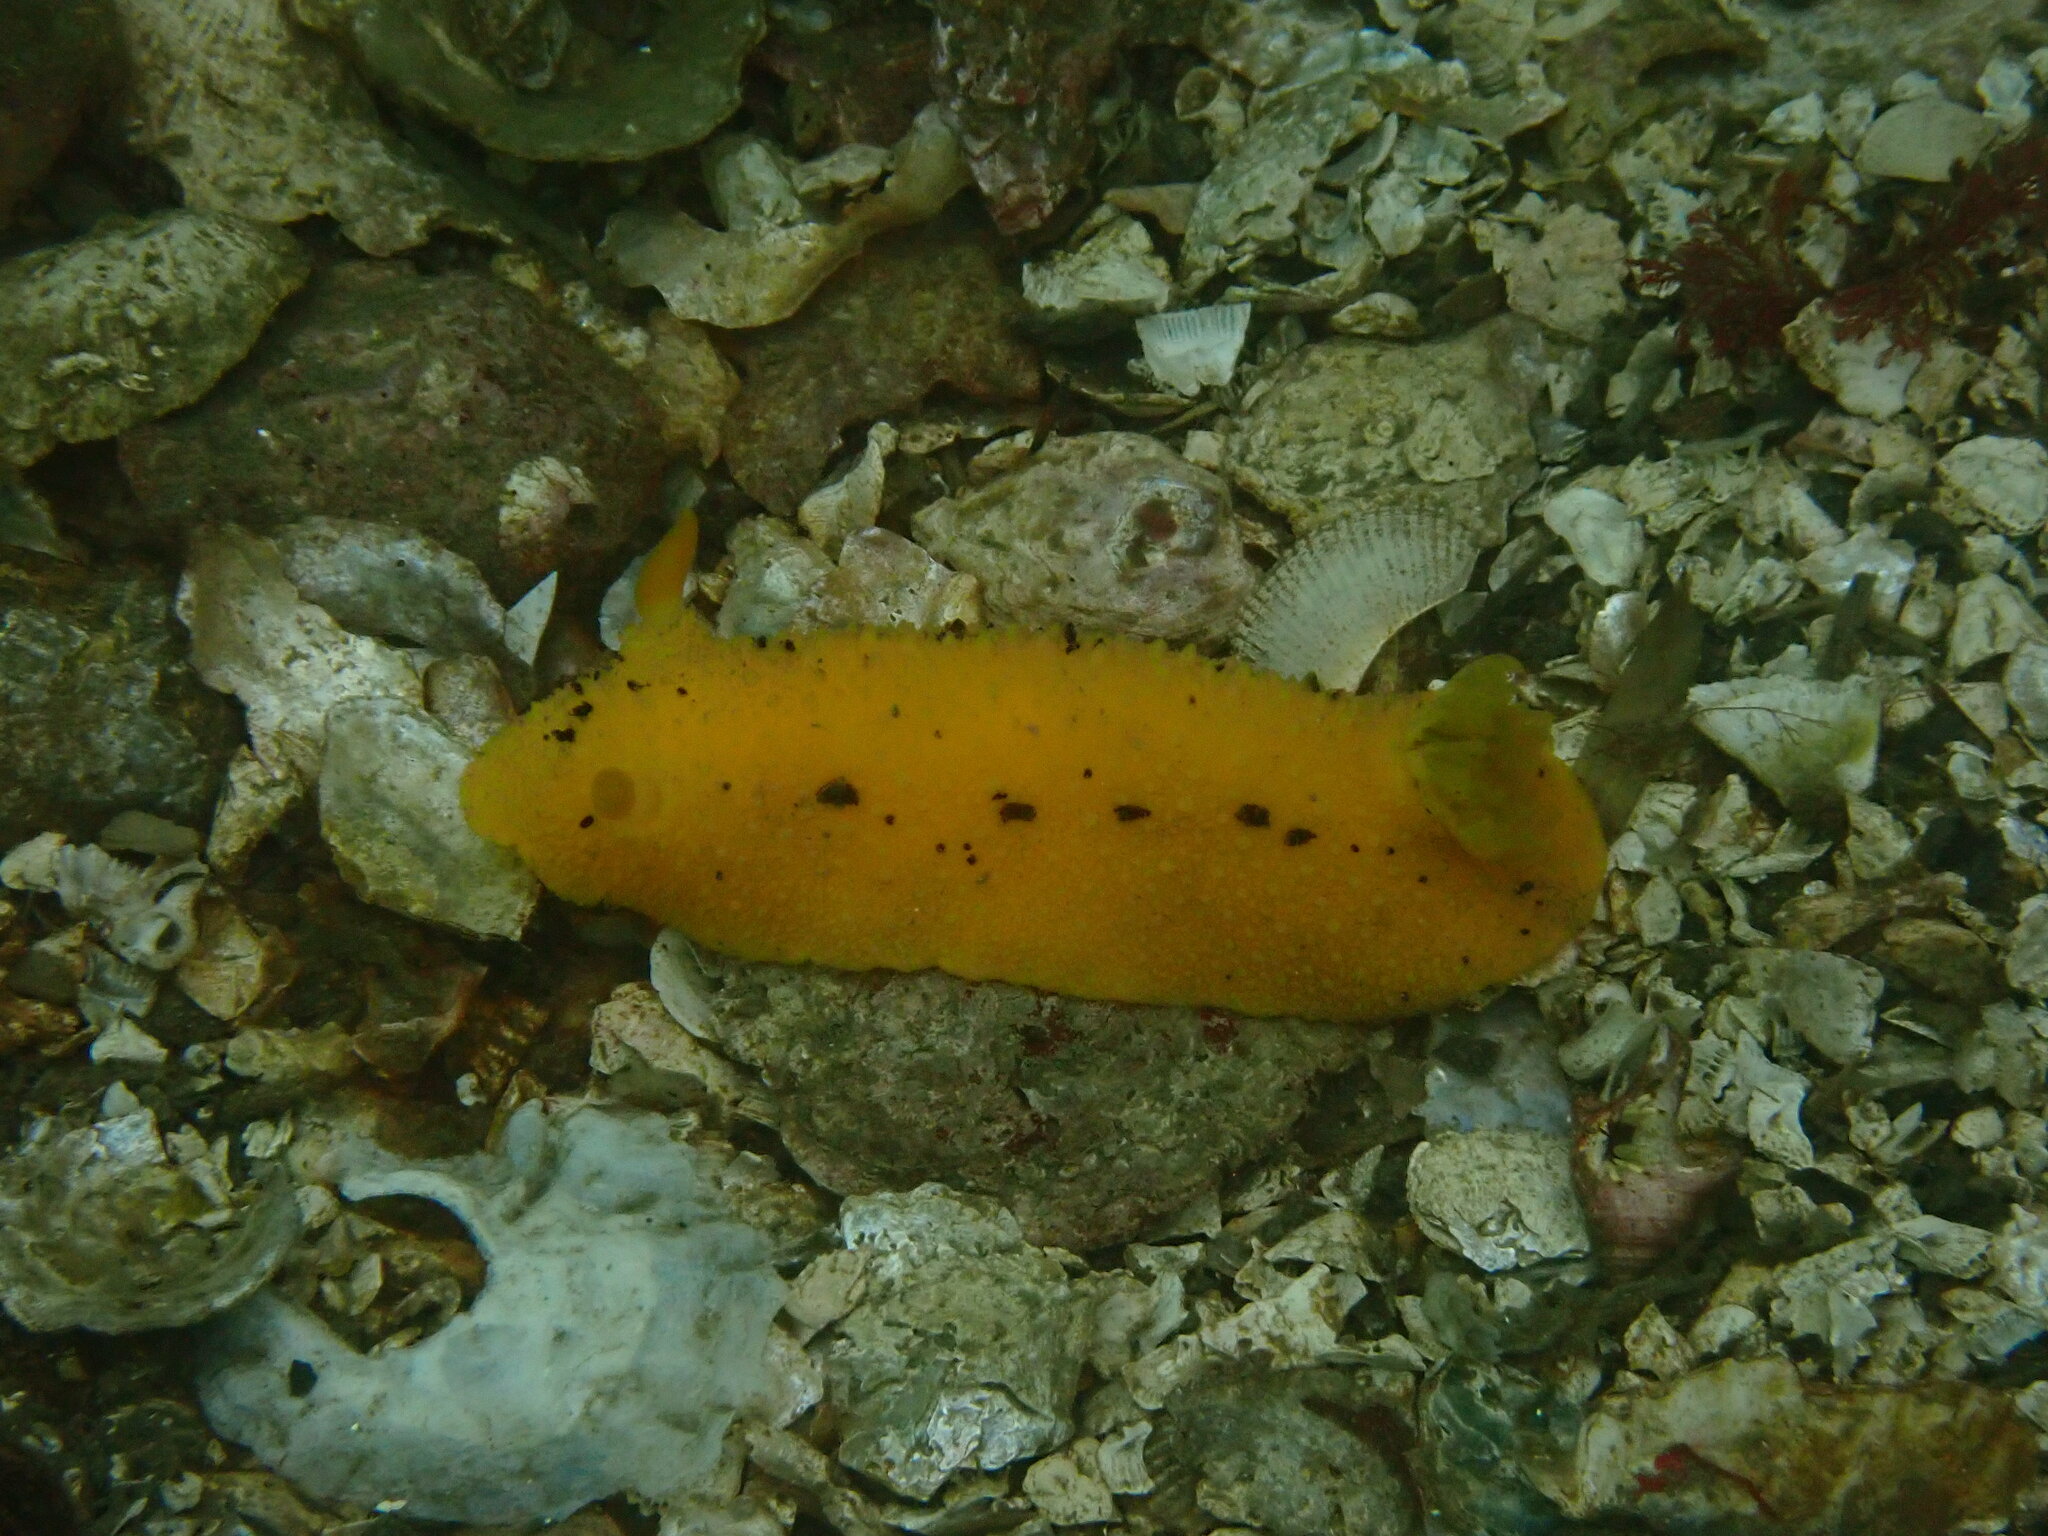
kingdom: Animalia
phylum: Mollusca
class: Gastropoda
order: Nudibranchia
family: Dorididae
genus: Doris
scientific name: Doris montereyensis
